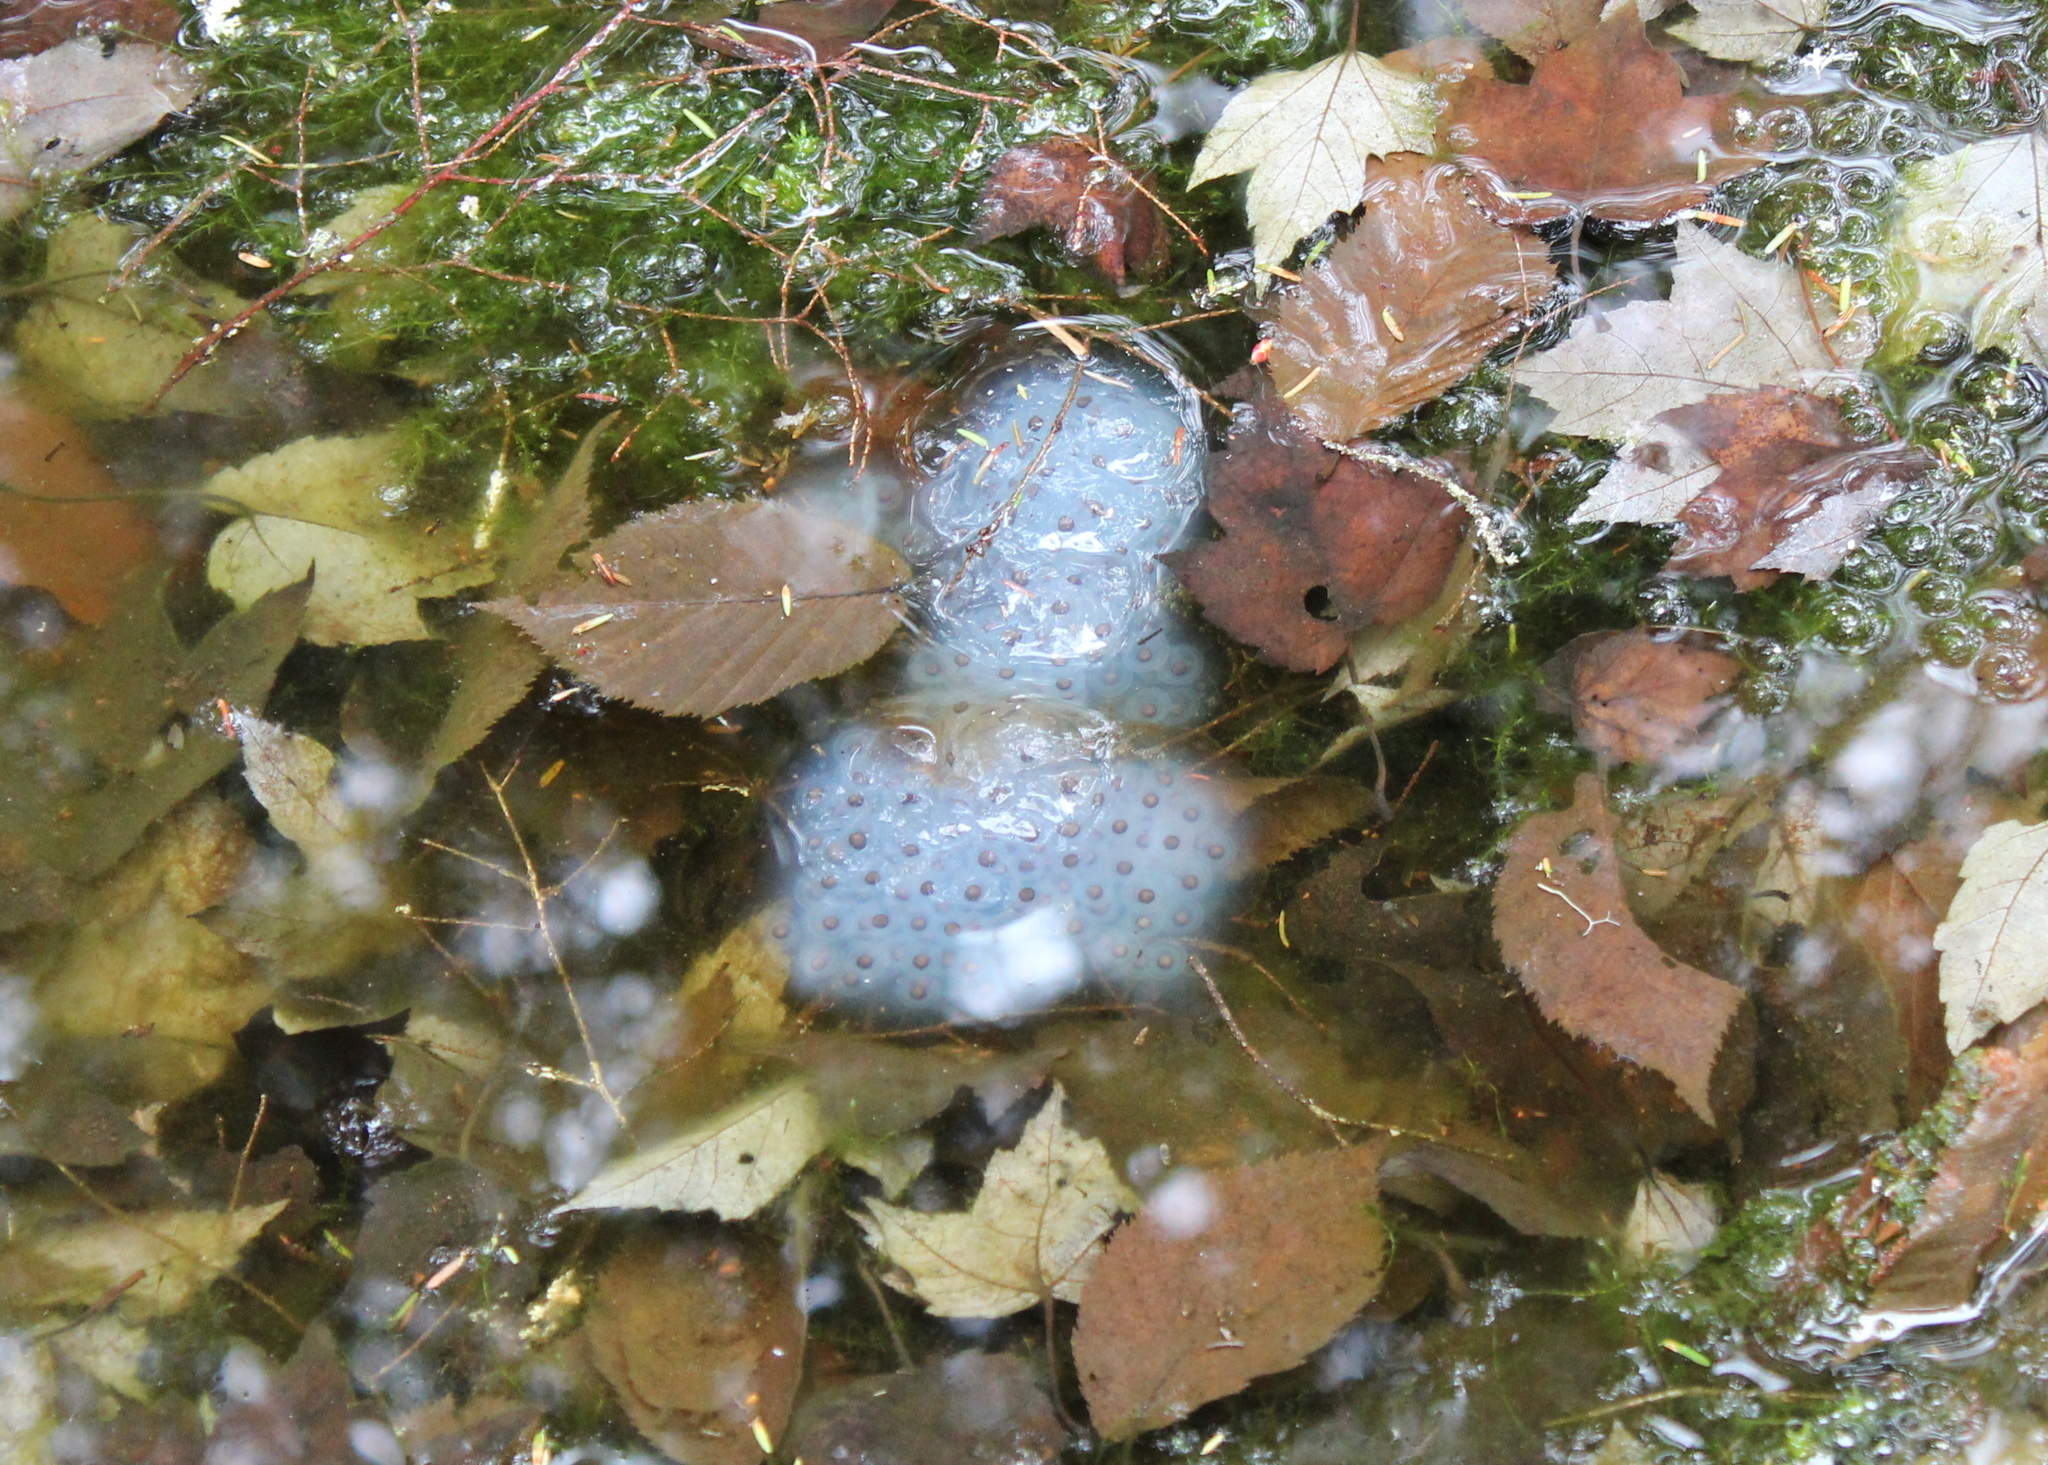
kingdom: Animalia
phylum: Chordata
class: Amphibia
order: Caudata
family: Ambystomatidae
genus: Ambystoma
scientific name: Ambystoma maculatum
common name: Spotted salamander
